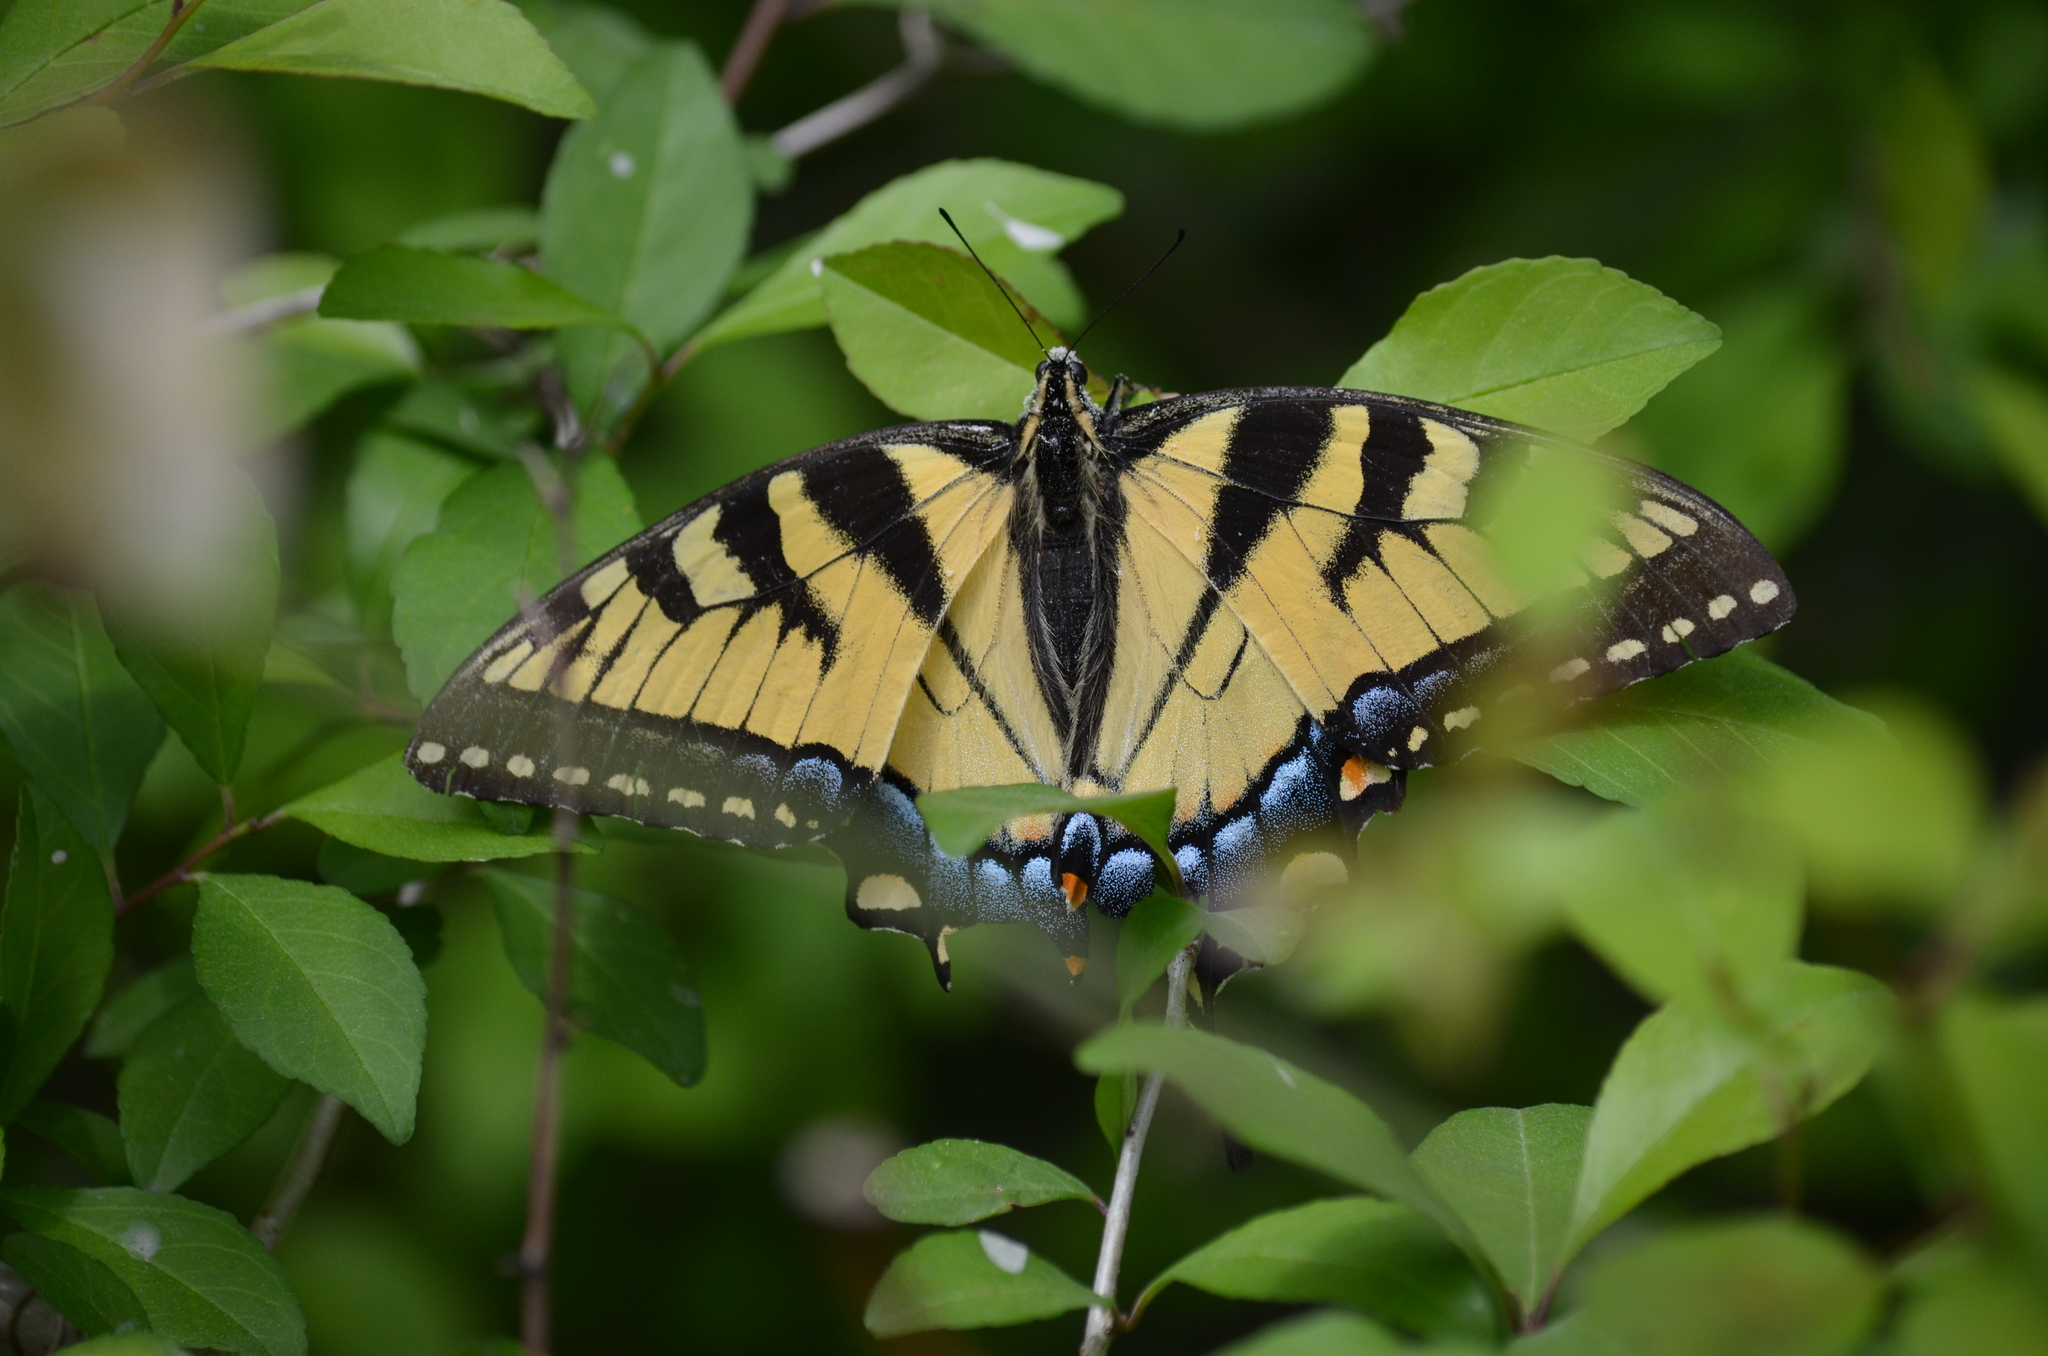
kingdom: Animalia
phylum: Arthropoda
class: Insecta
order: Lepidoptera
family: Papilionidae
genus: Papilio
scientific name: Papilio glaucus
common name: Tiger swallowtail
